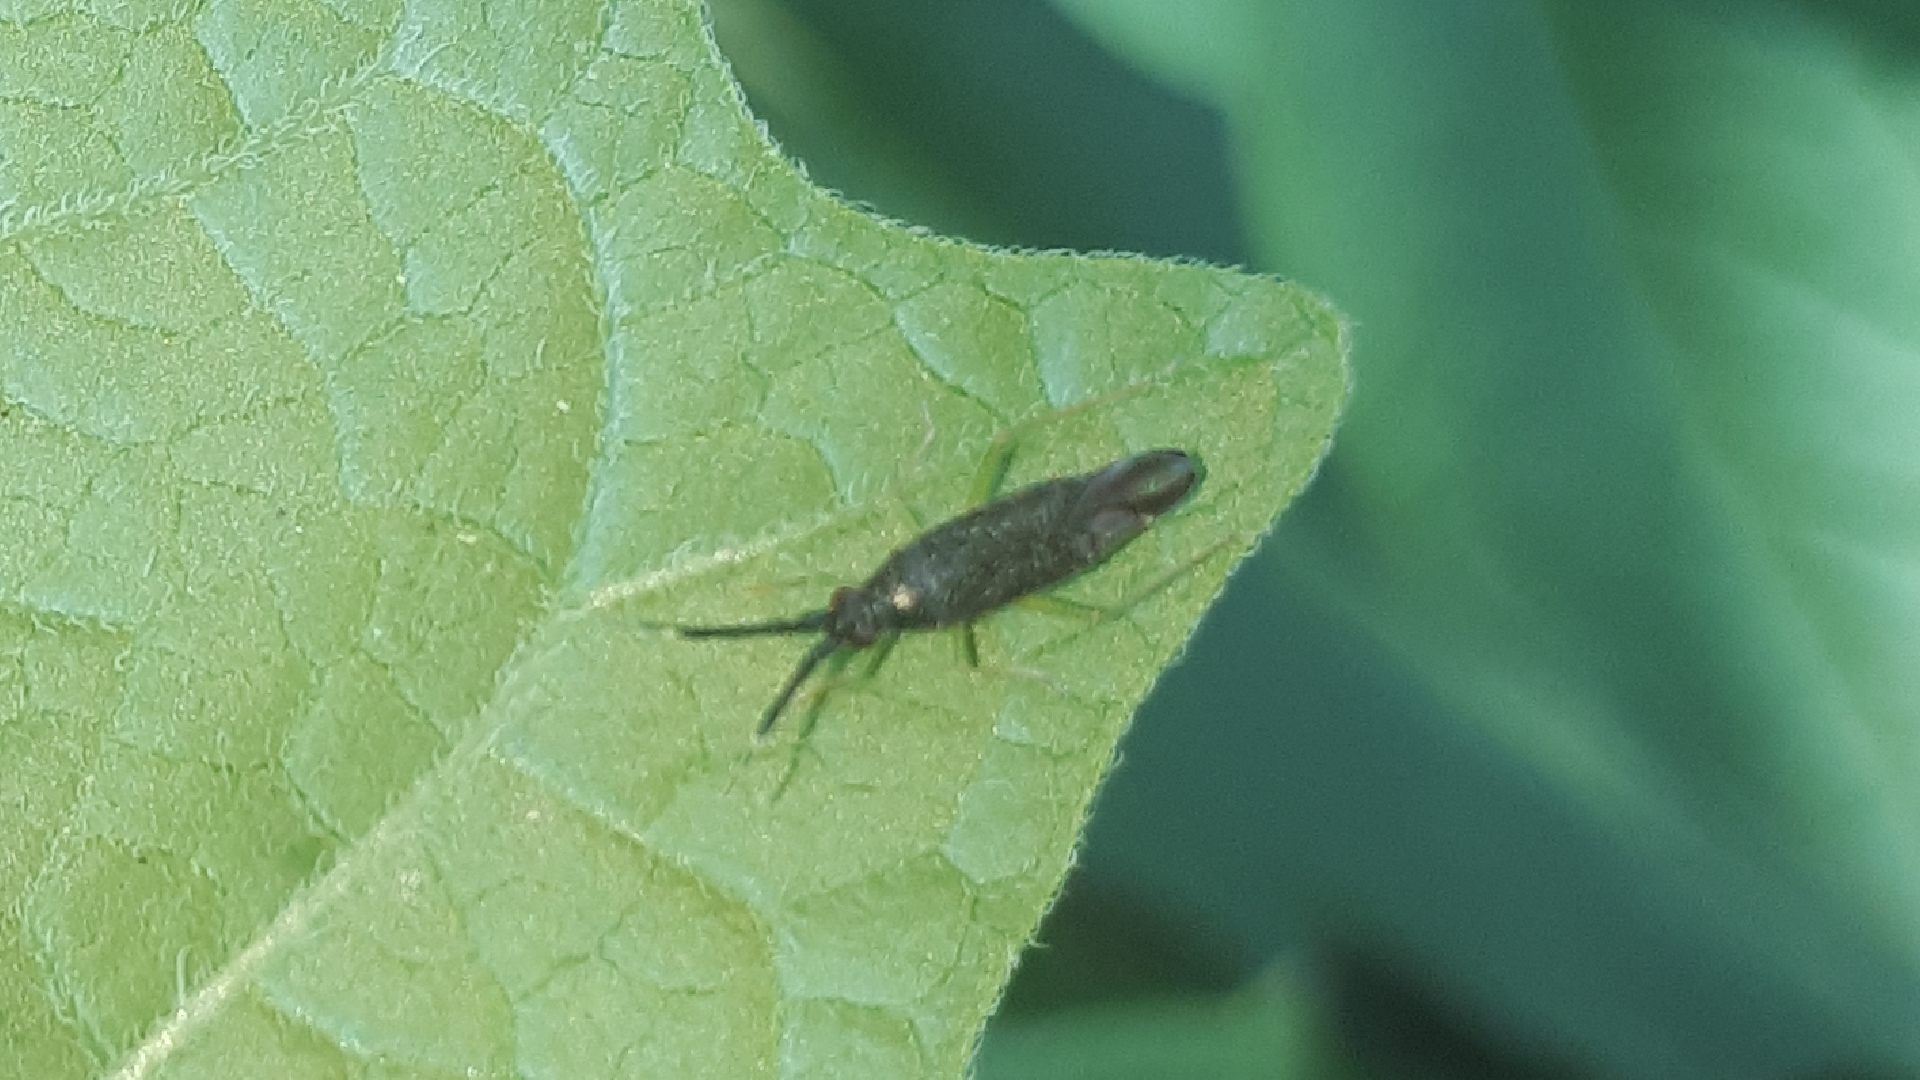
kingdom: Animalia
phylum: Arthropoda
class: Insecta
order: Hemiptera
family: Miridae
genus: Heterotoma
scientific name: Heterotoma planicornis
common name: Plant bug
